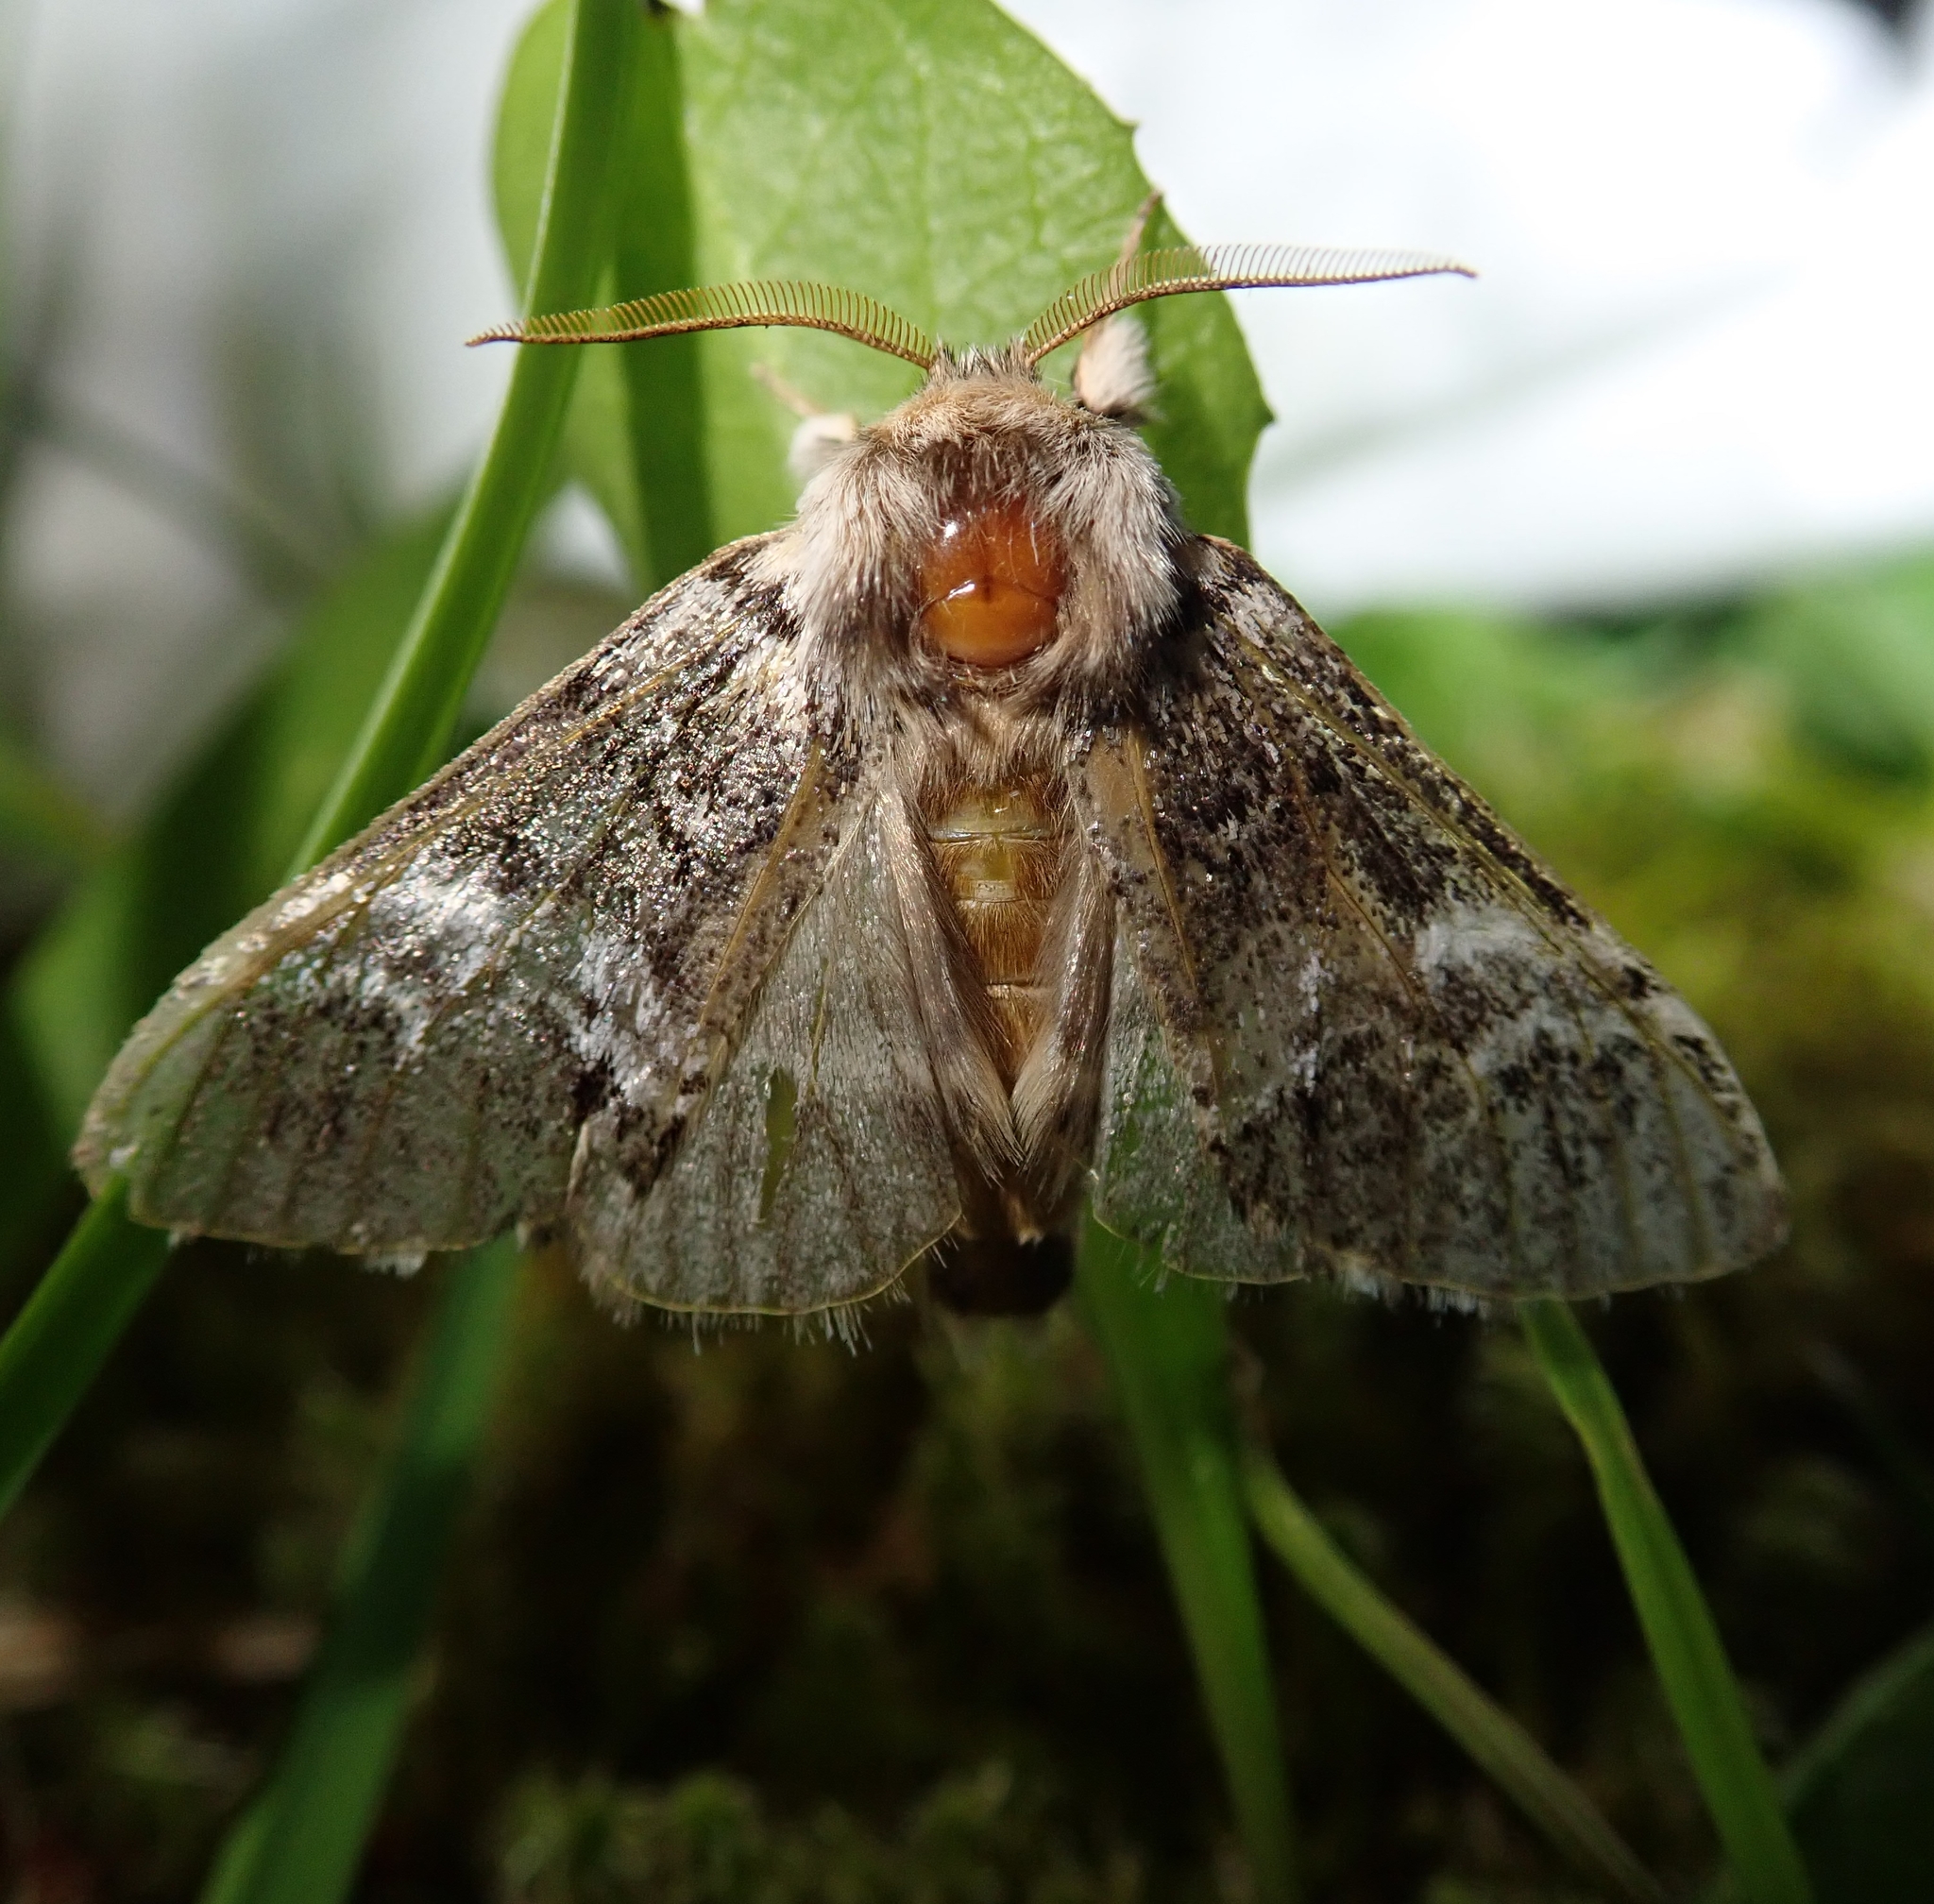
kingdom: Animalia
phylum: Arthropoda
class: Insecta
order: Lepidoptera
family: Notodontidae
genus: Drymonia
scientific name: Drymonia dodonaea
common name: Marbled brown
